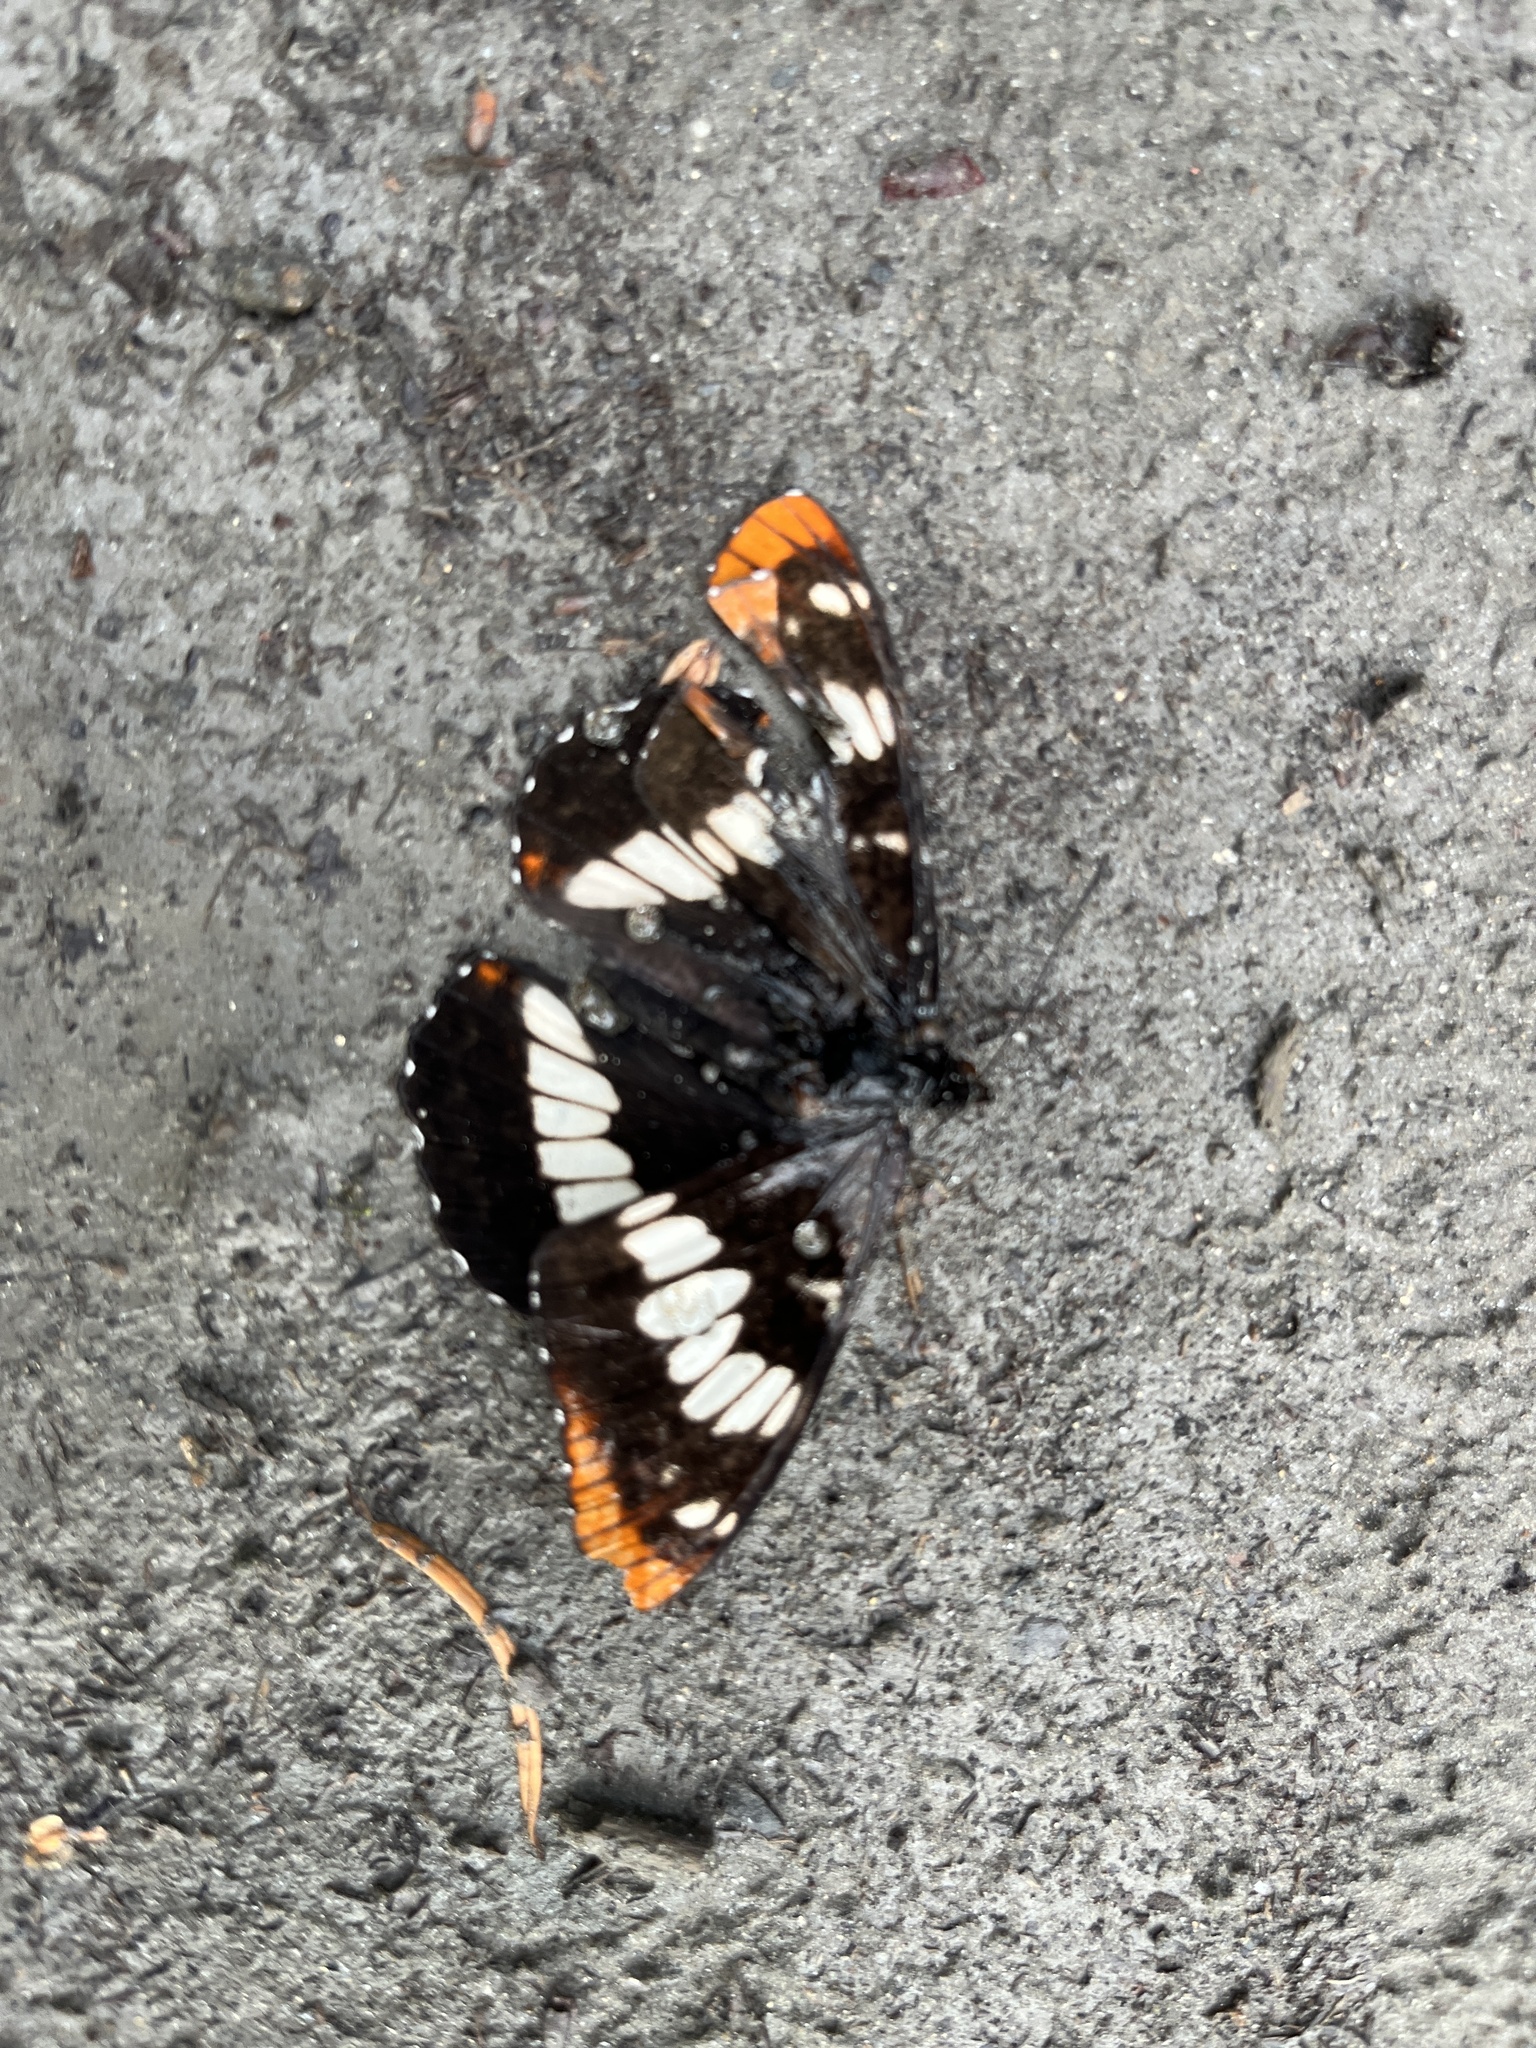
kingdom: Animalia
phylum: Arthropoda
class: Insecta
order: Lepidoptera
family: Nymphalidae
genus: Limenitis
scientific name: Limenitis lorquini
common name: Lorquin's admiral
